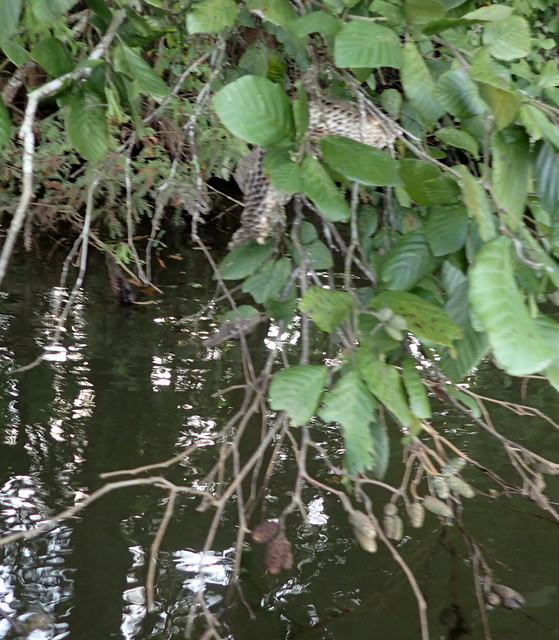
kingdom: Animalia
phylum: Arthropoda
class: Insecta
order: Hymenoptera
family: Eumenidae
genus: Polistes
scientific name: Polistes annularis
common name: Ringed paper wasp
